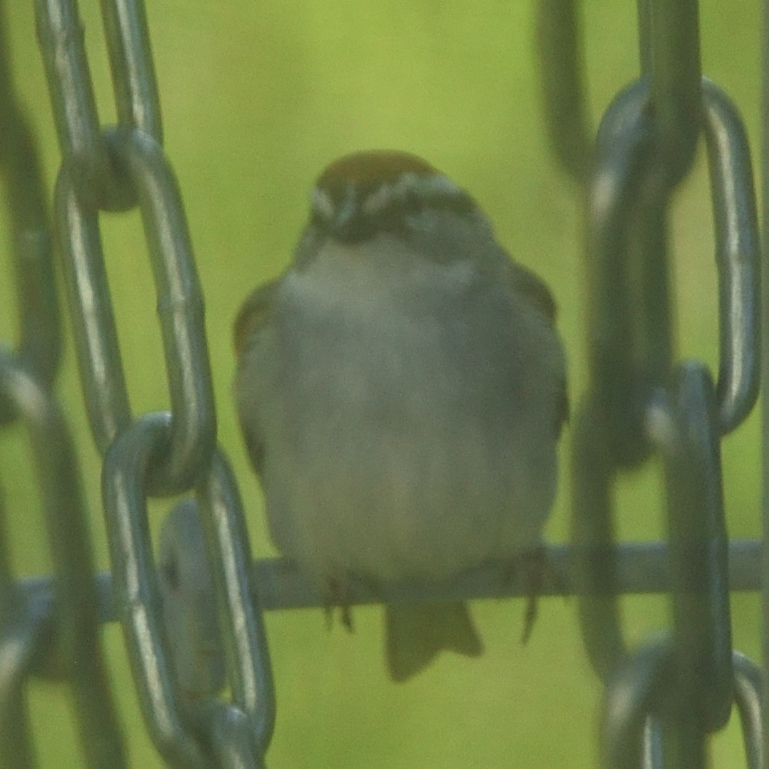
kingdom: Animalia
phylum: Chordata
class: Aves
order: Passeriformes
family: Passerellidae
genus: Spizella
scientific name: Spizella passerina
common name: Chipping sparrow
